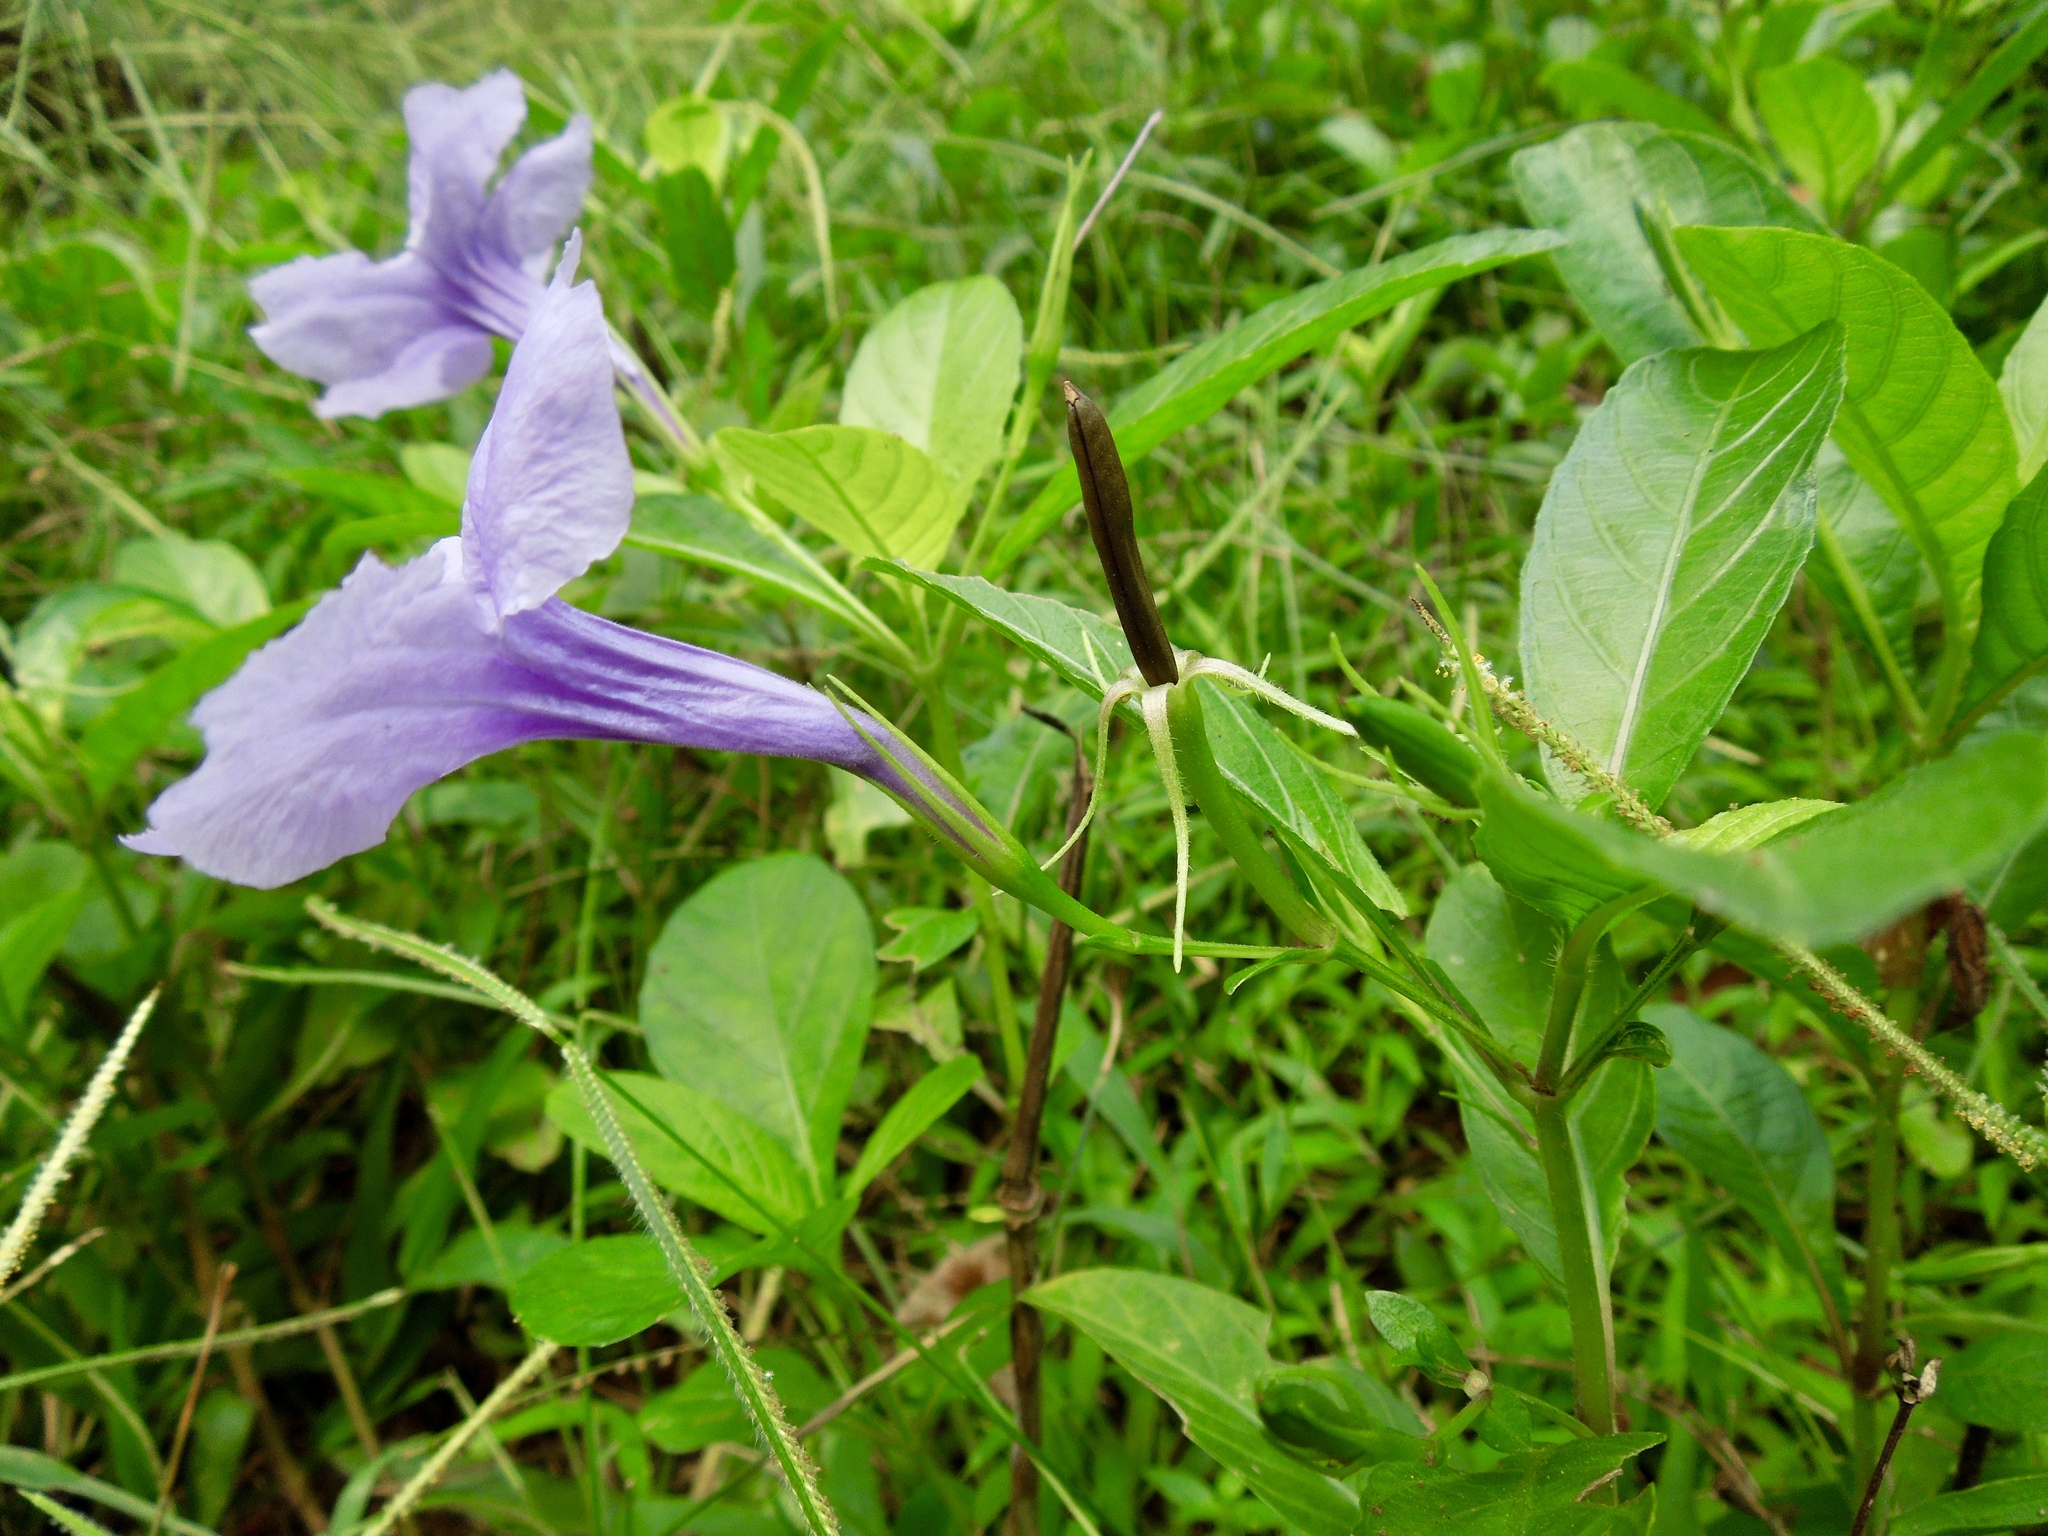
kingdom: Plantae
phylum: Tracheophyta
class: Magnoliopsida
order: Lamiales
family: Acanthaceae
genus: Ruellia
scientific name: Ruellia tuberosa
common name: Devil's bit
